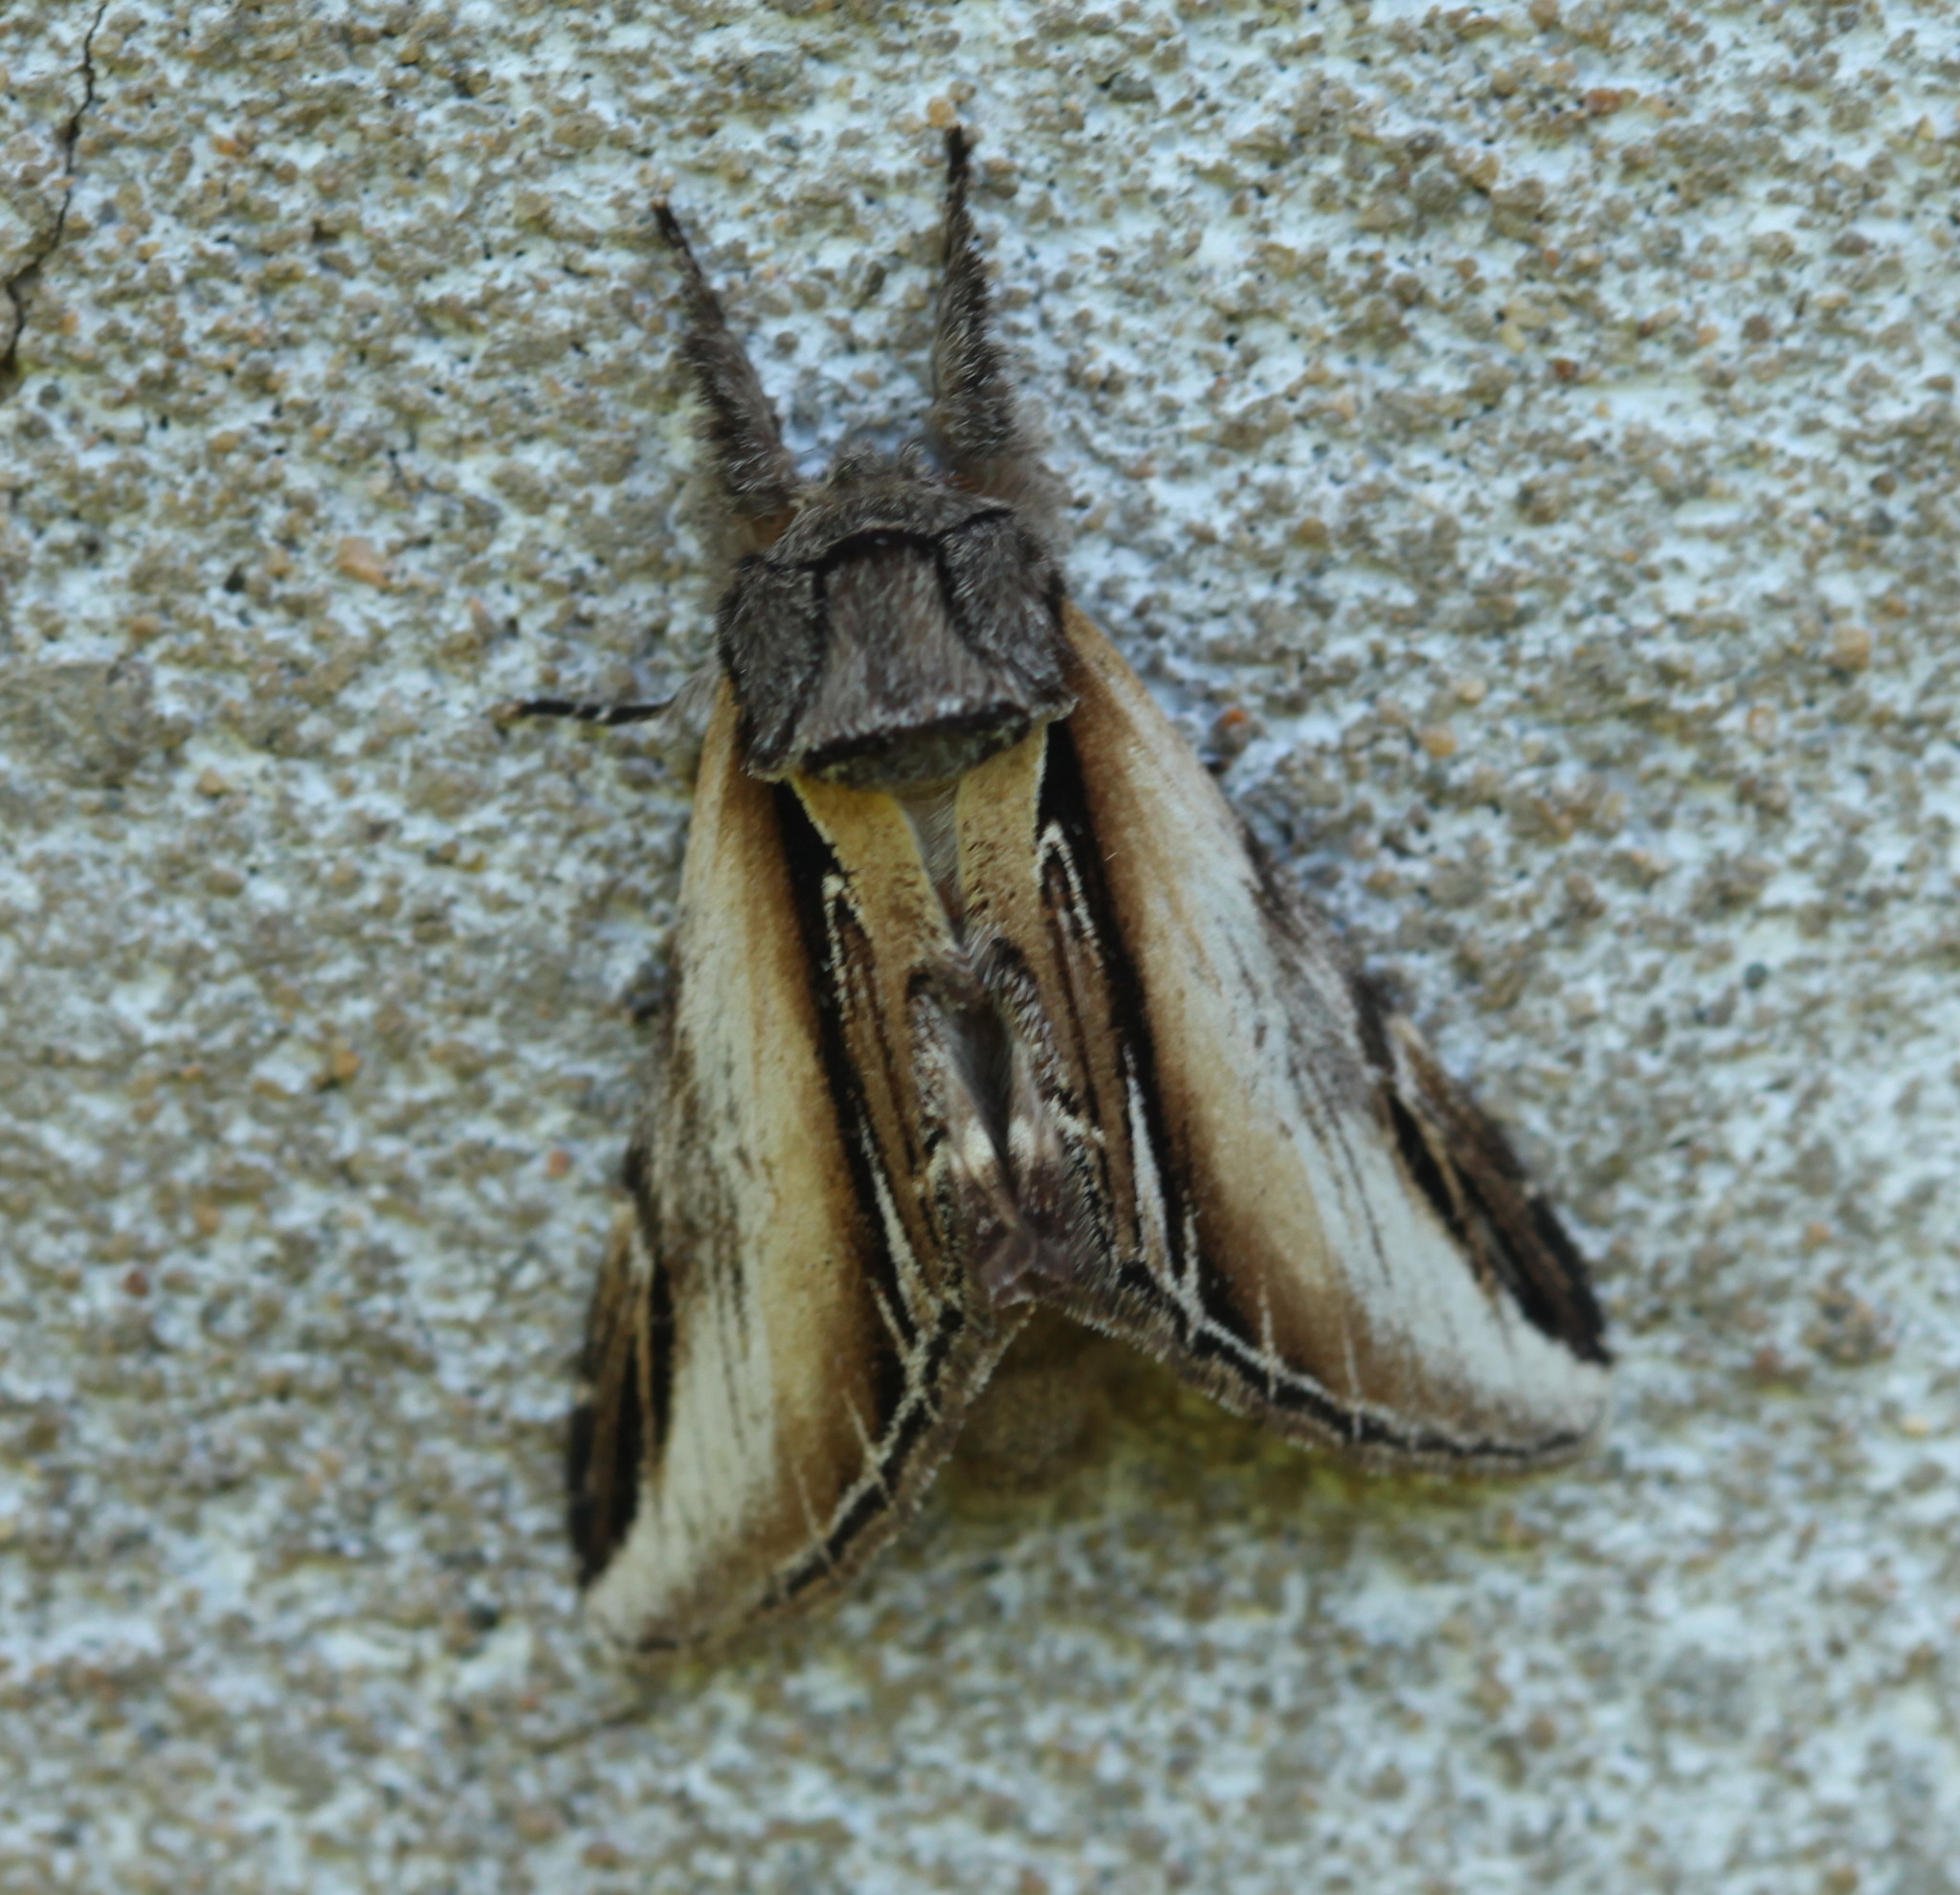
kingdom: Animalia
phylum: Arthropoda
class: Insecta
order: Lepidoptera
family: Notodontidae
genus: Pheosia
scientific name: Pheosia rimosa
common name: Black-rimmed prominent
